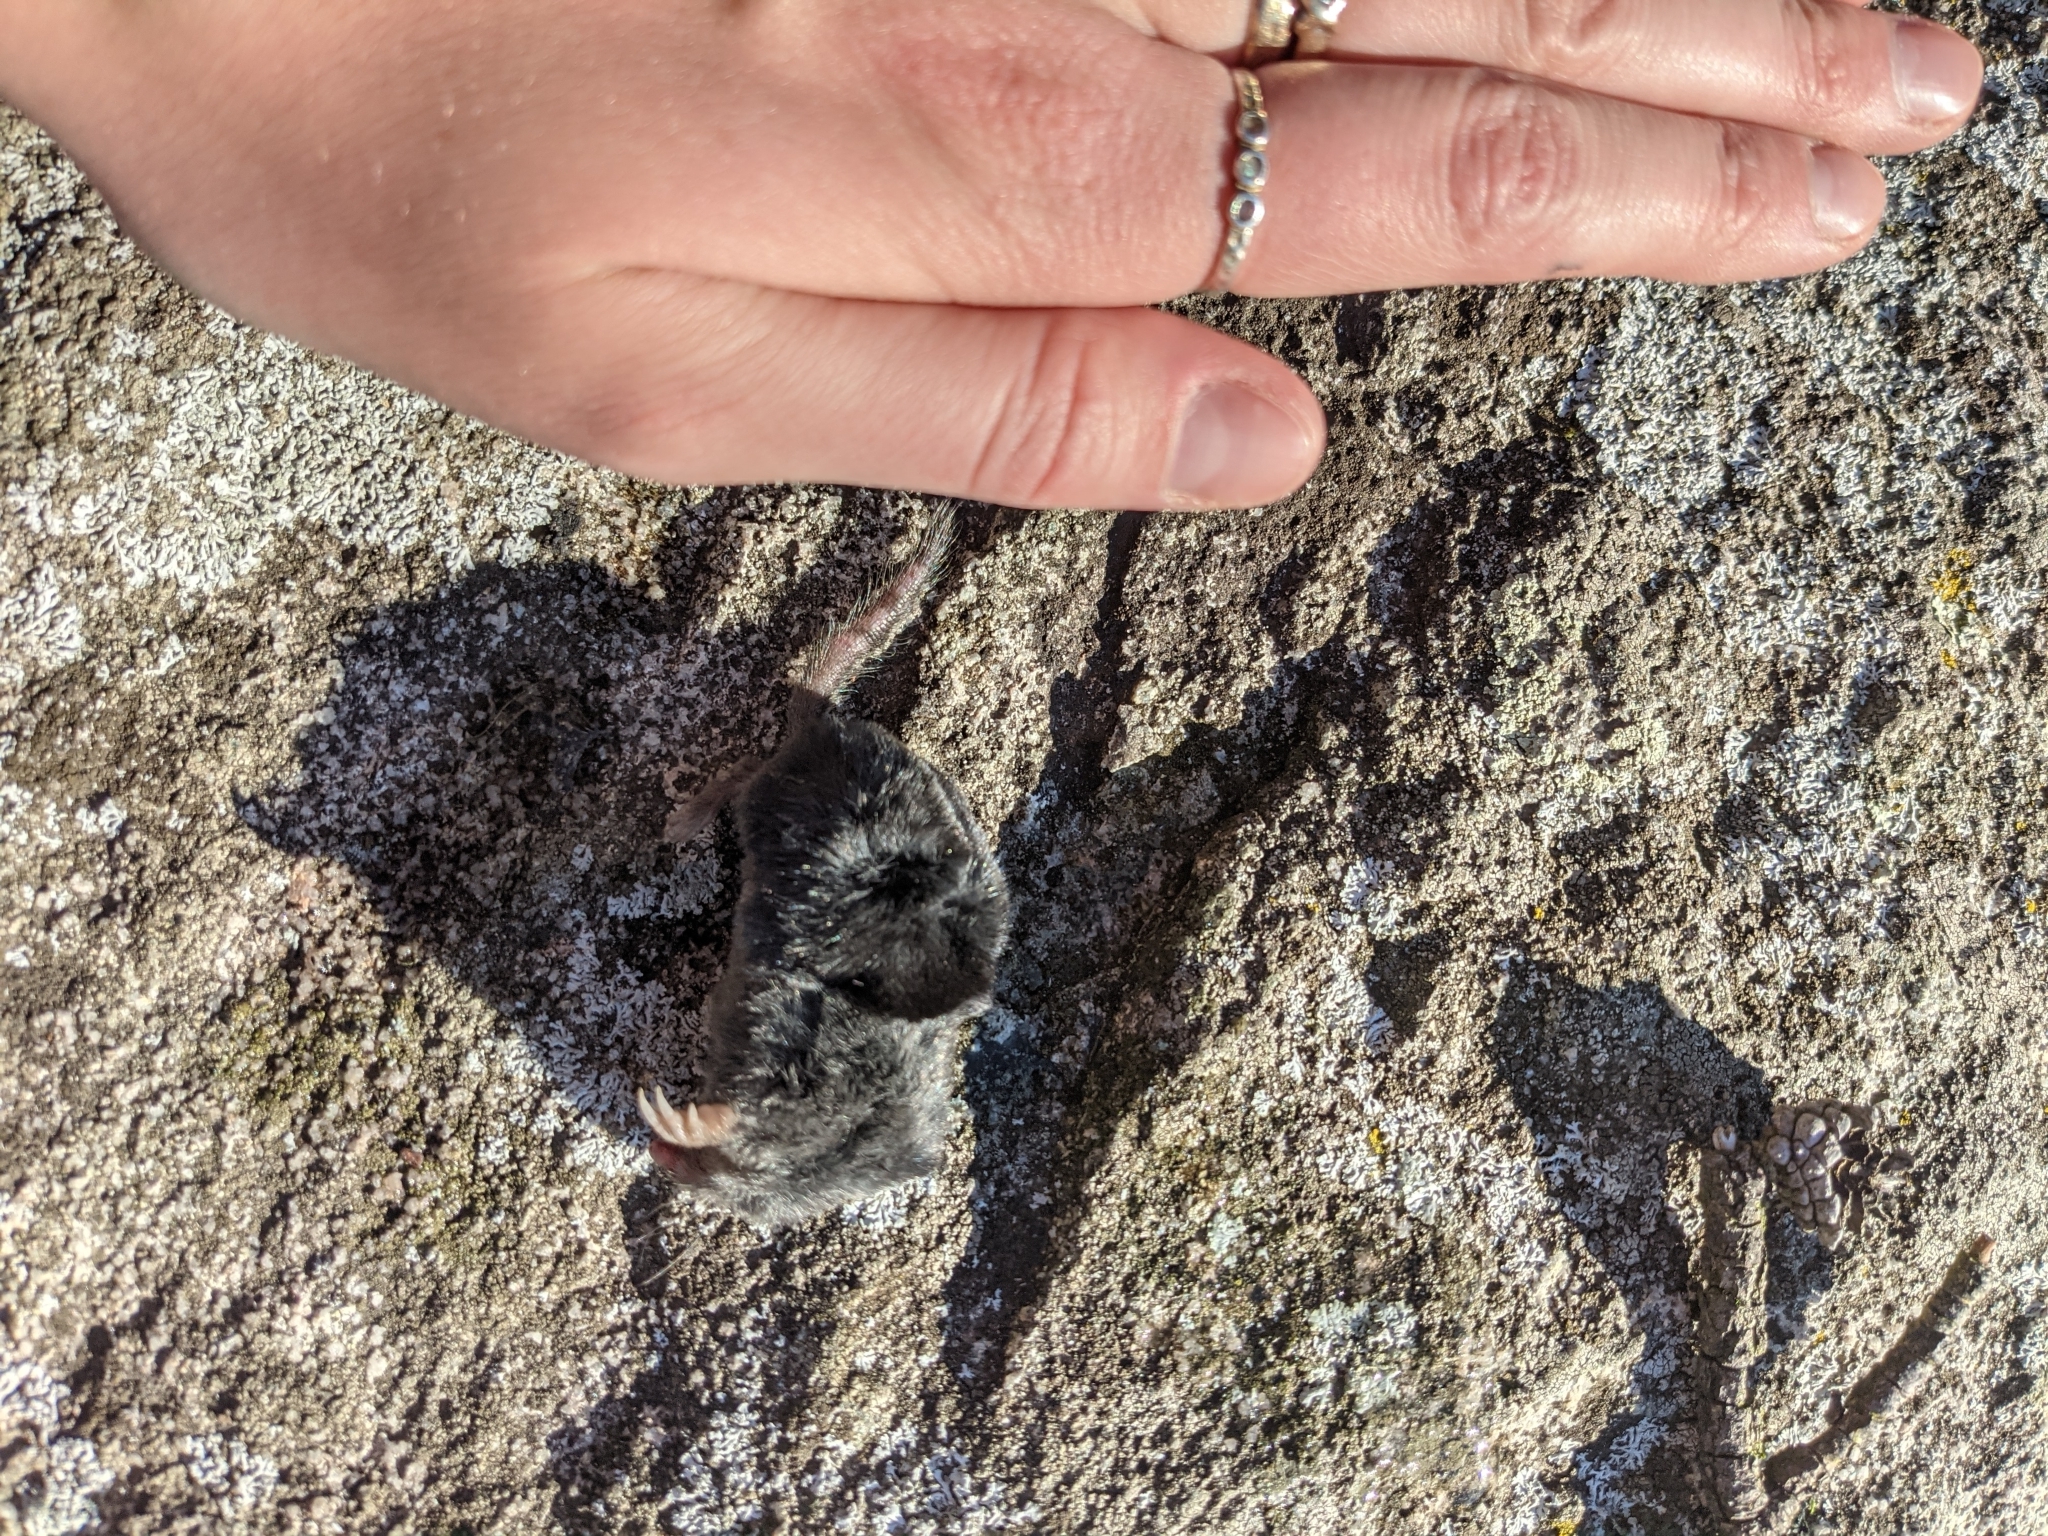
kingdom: Animalia
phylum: Chordata
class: Mammalia
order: Soricomorpha
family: Talpidae
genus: Neurotrichus
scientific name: Neurotrichus gibbsii
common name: American shrew mole
